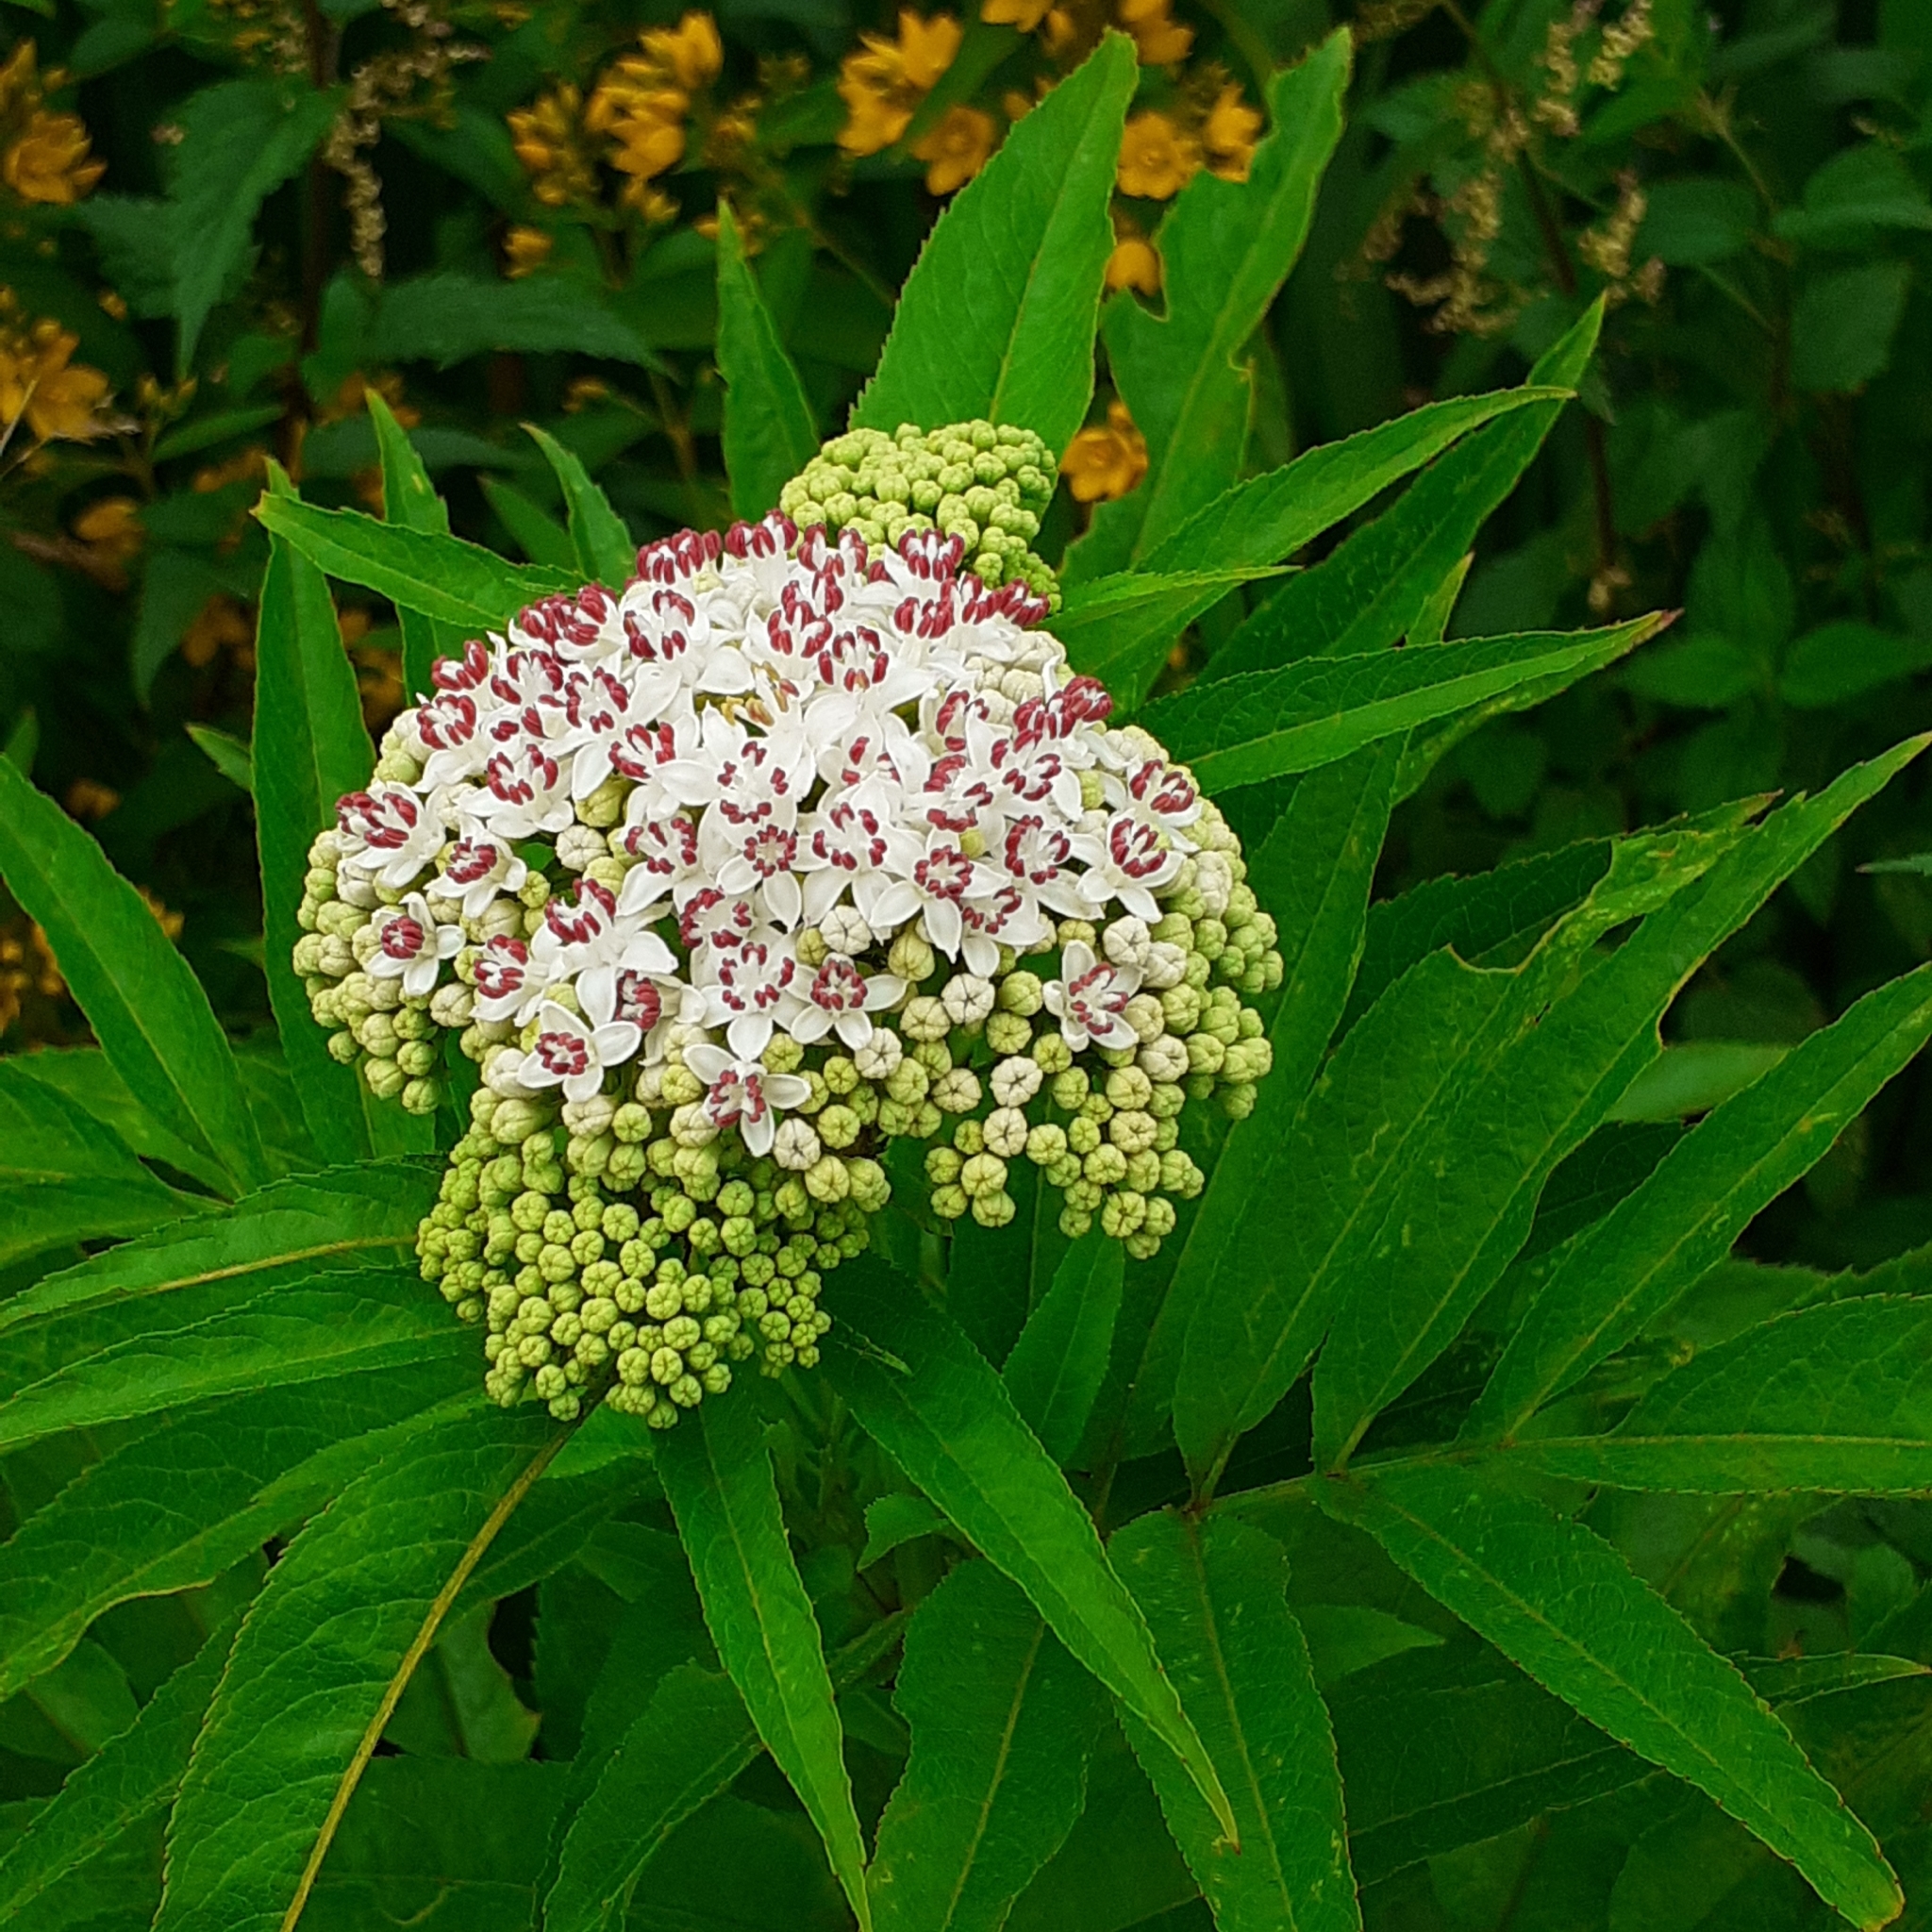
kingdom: Plantae
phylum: Tracheophyta
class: Magnoliopsida
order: Dipsacales
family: Viburnaceae
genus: Sambucus
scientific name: Sambucus ebulus
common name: Dwarf elder
